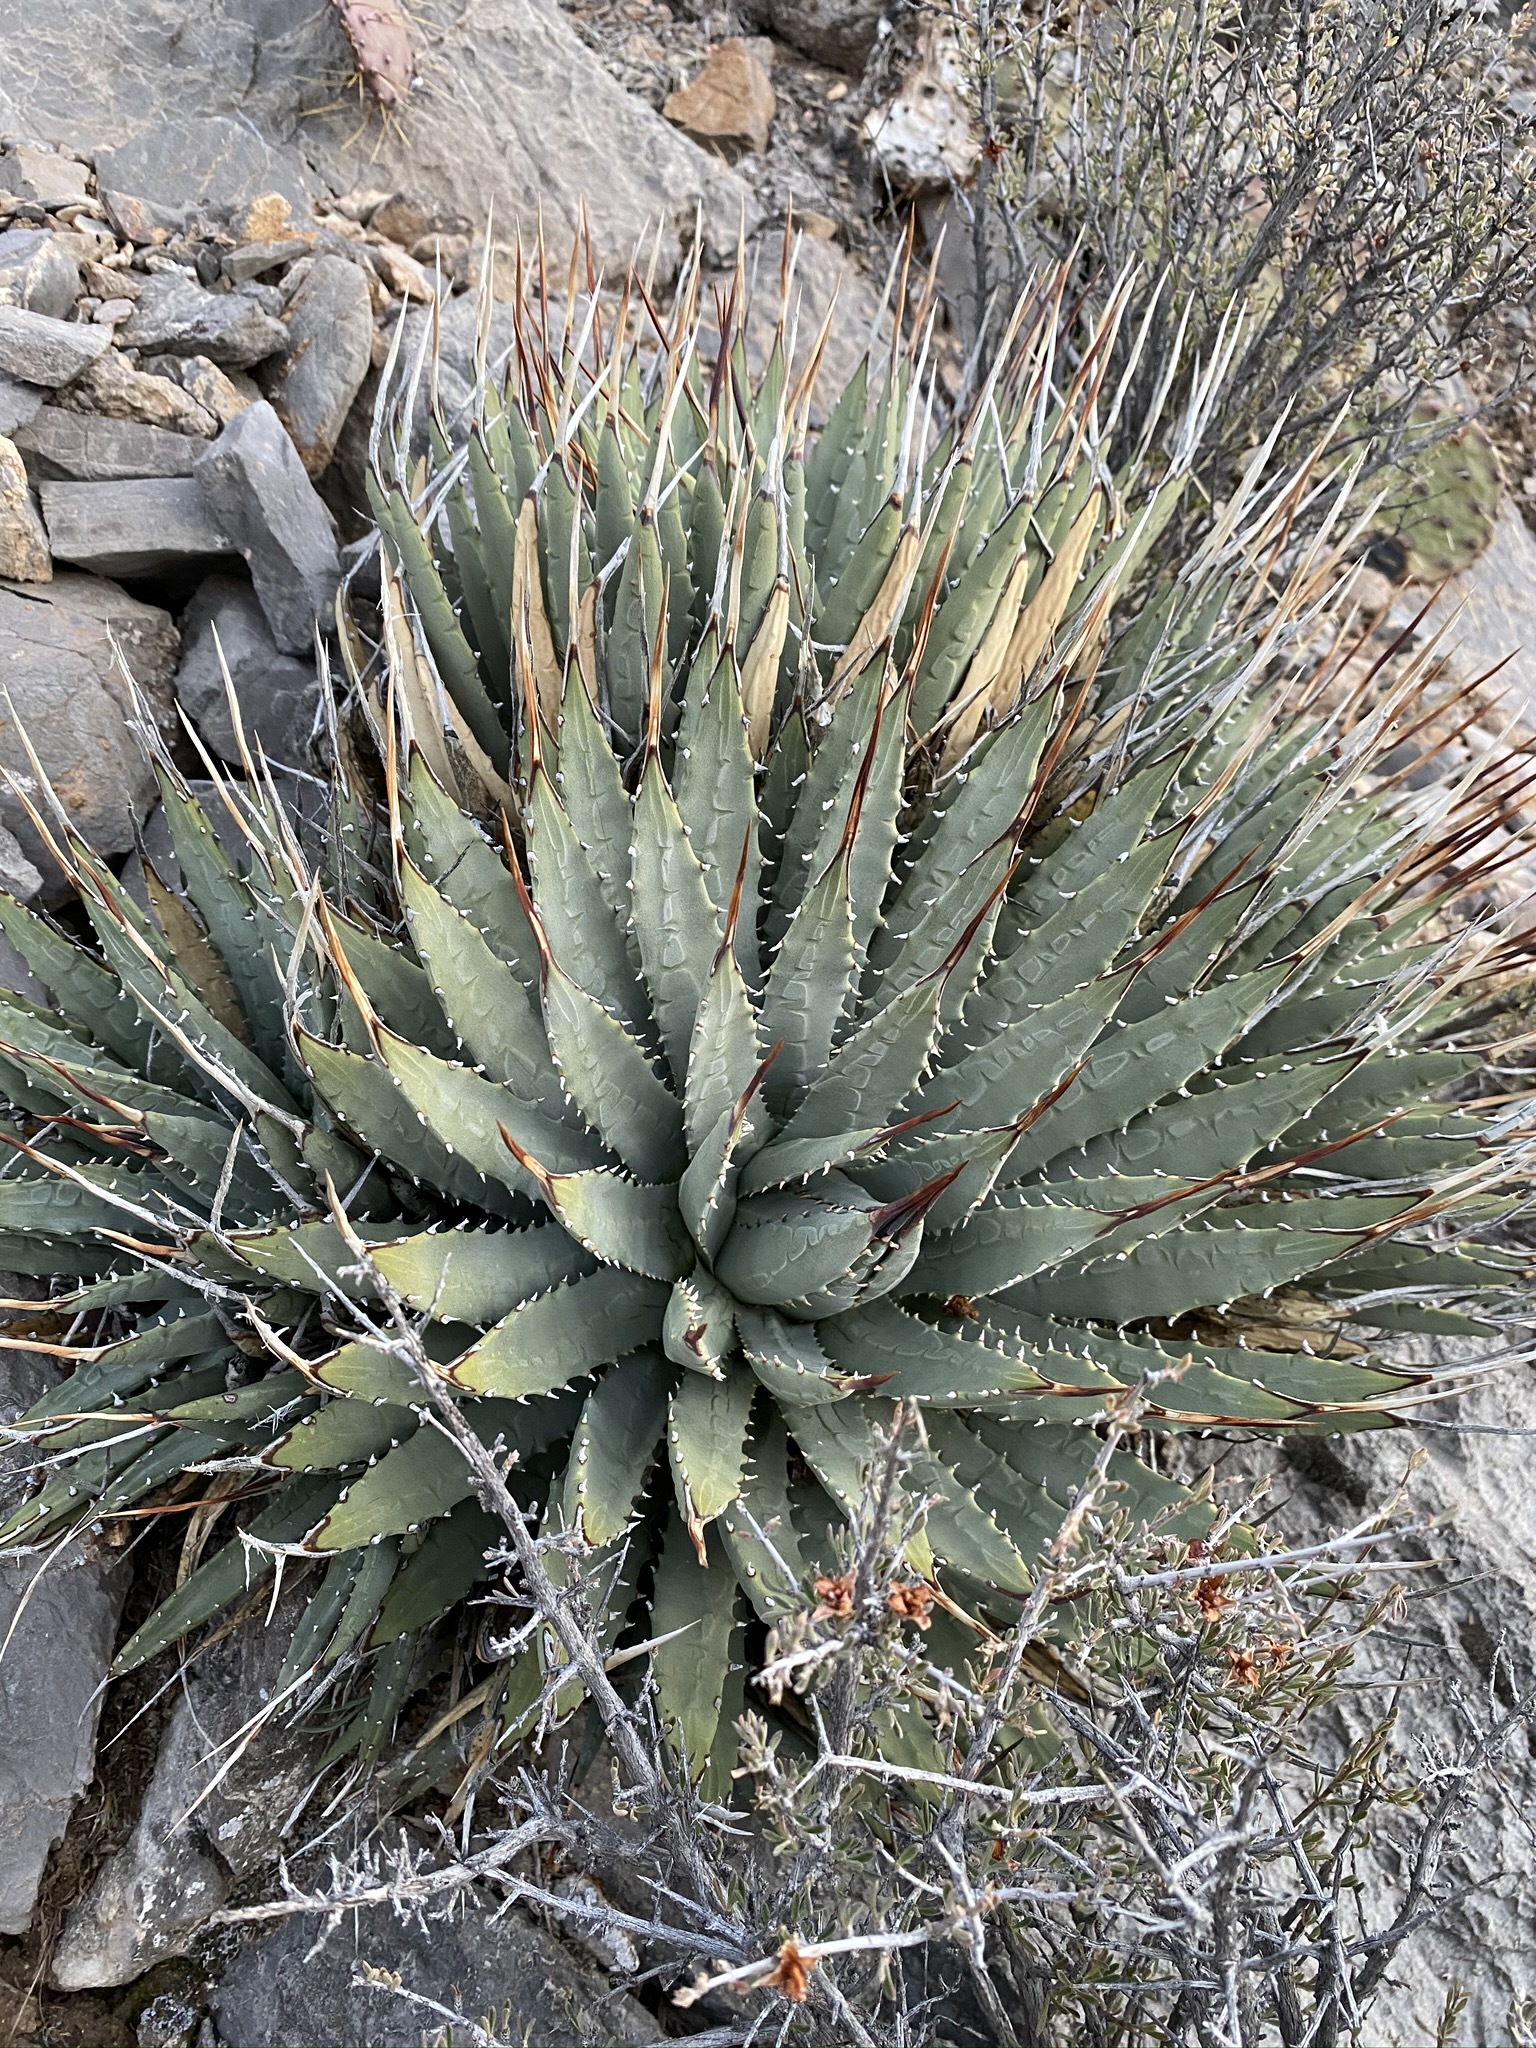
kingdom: Plantae
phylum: Tracheophyta
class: Liliopsida
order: Asparagales
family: Asparagaceae
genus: Agave
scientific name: Agave utahensis
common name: Utah agave
